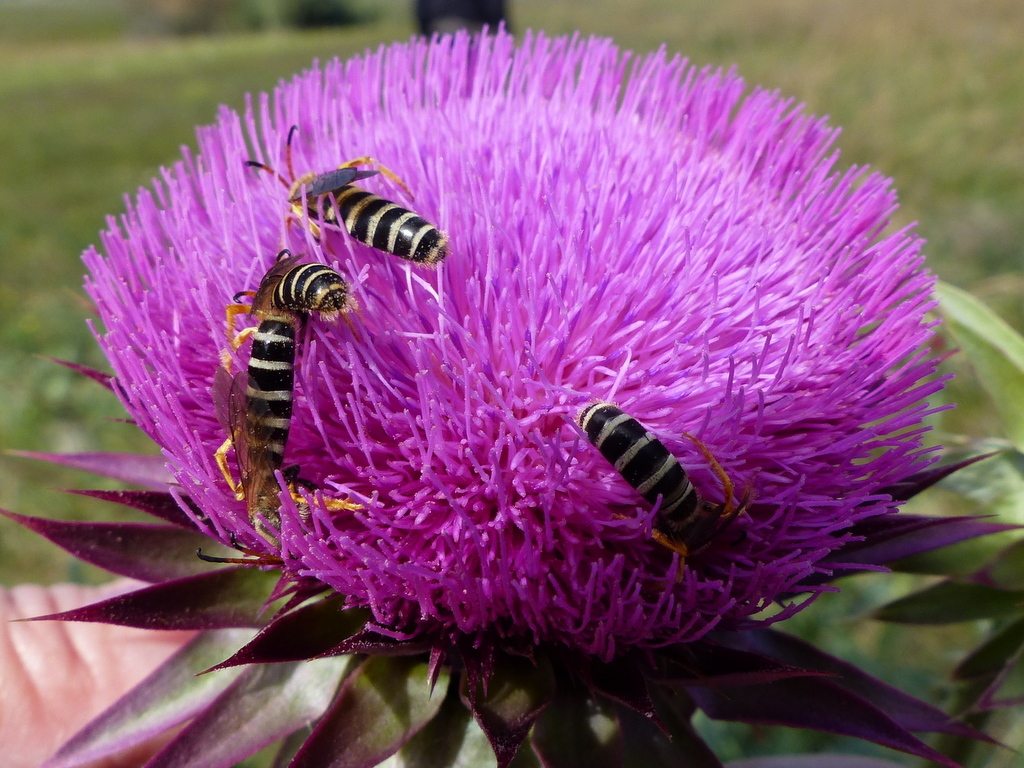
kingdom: Animalia
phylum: Arthropoda
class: Insecta
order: Hymenoptera
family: Halictidae
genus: Halictus
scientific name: Halictus sexcinctus
